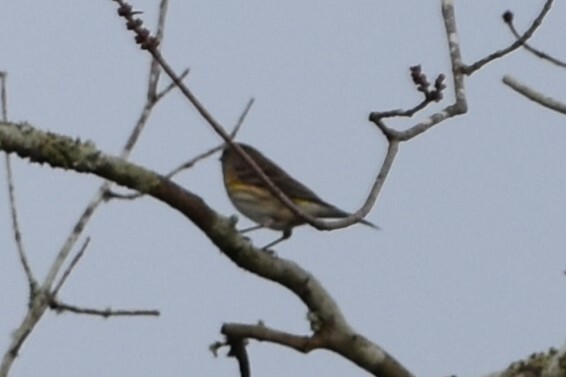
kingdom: Animalia
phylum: Chordata
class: Aves
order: Passeriformes
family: Parulidae
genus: Setophaga
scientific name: Setophaga coronata
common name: Myrtle warbler
